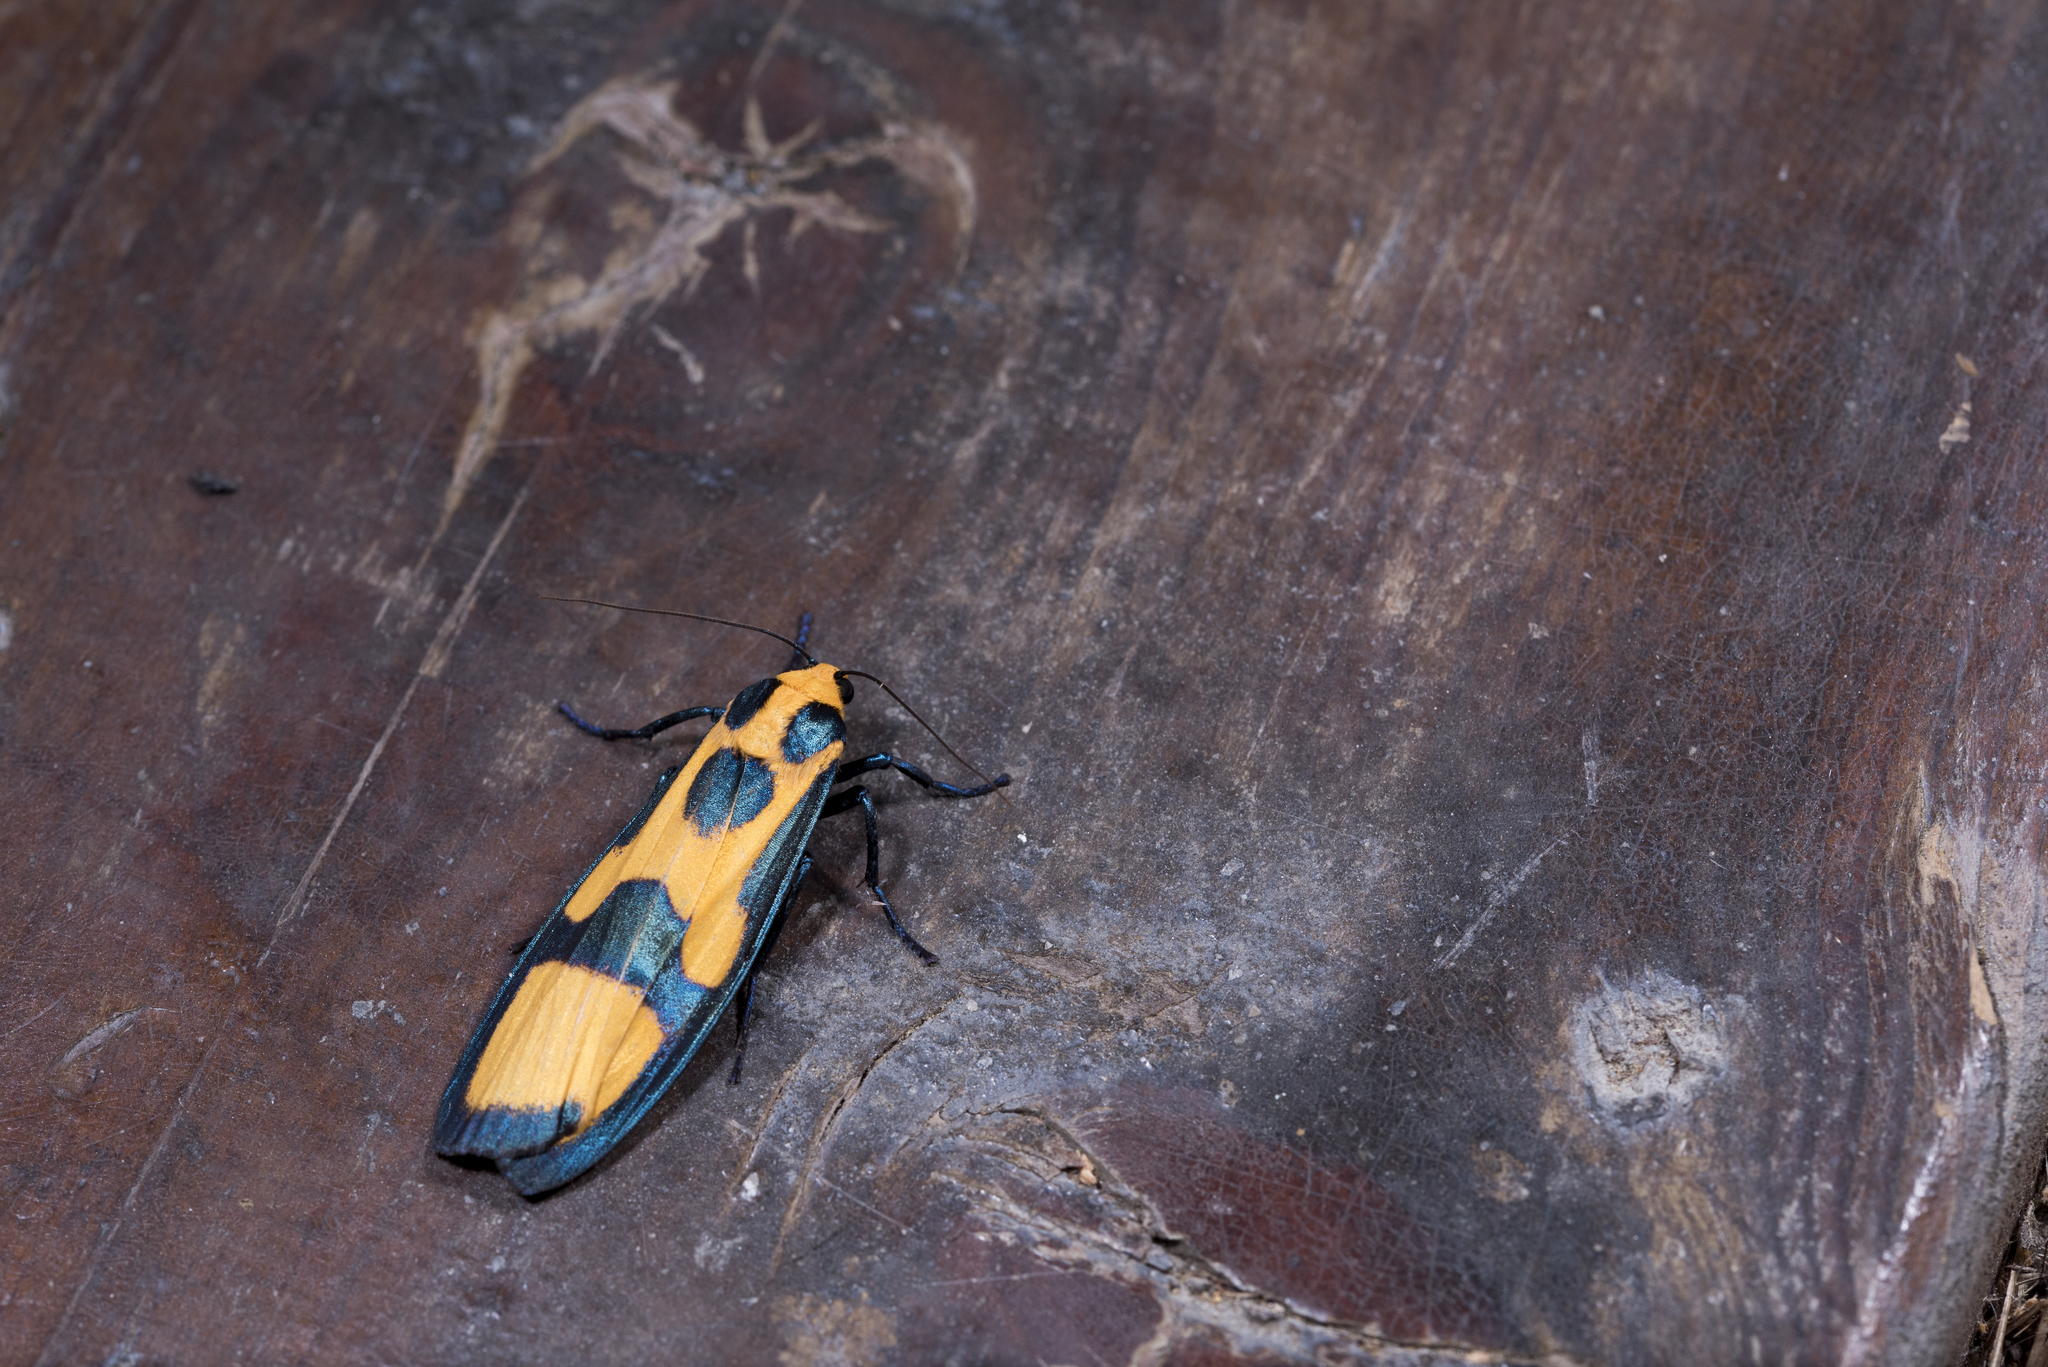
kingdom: Animalia
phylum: Arthropoda
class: Insecta
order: Lepidoptera
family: Erebidae
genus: Chrysaeglia
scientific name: Chrysaeglia magnifica
